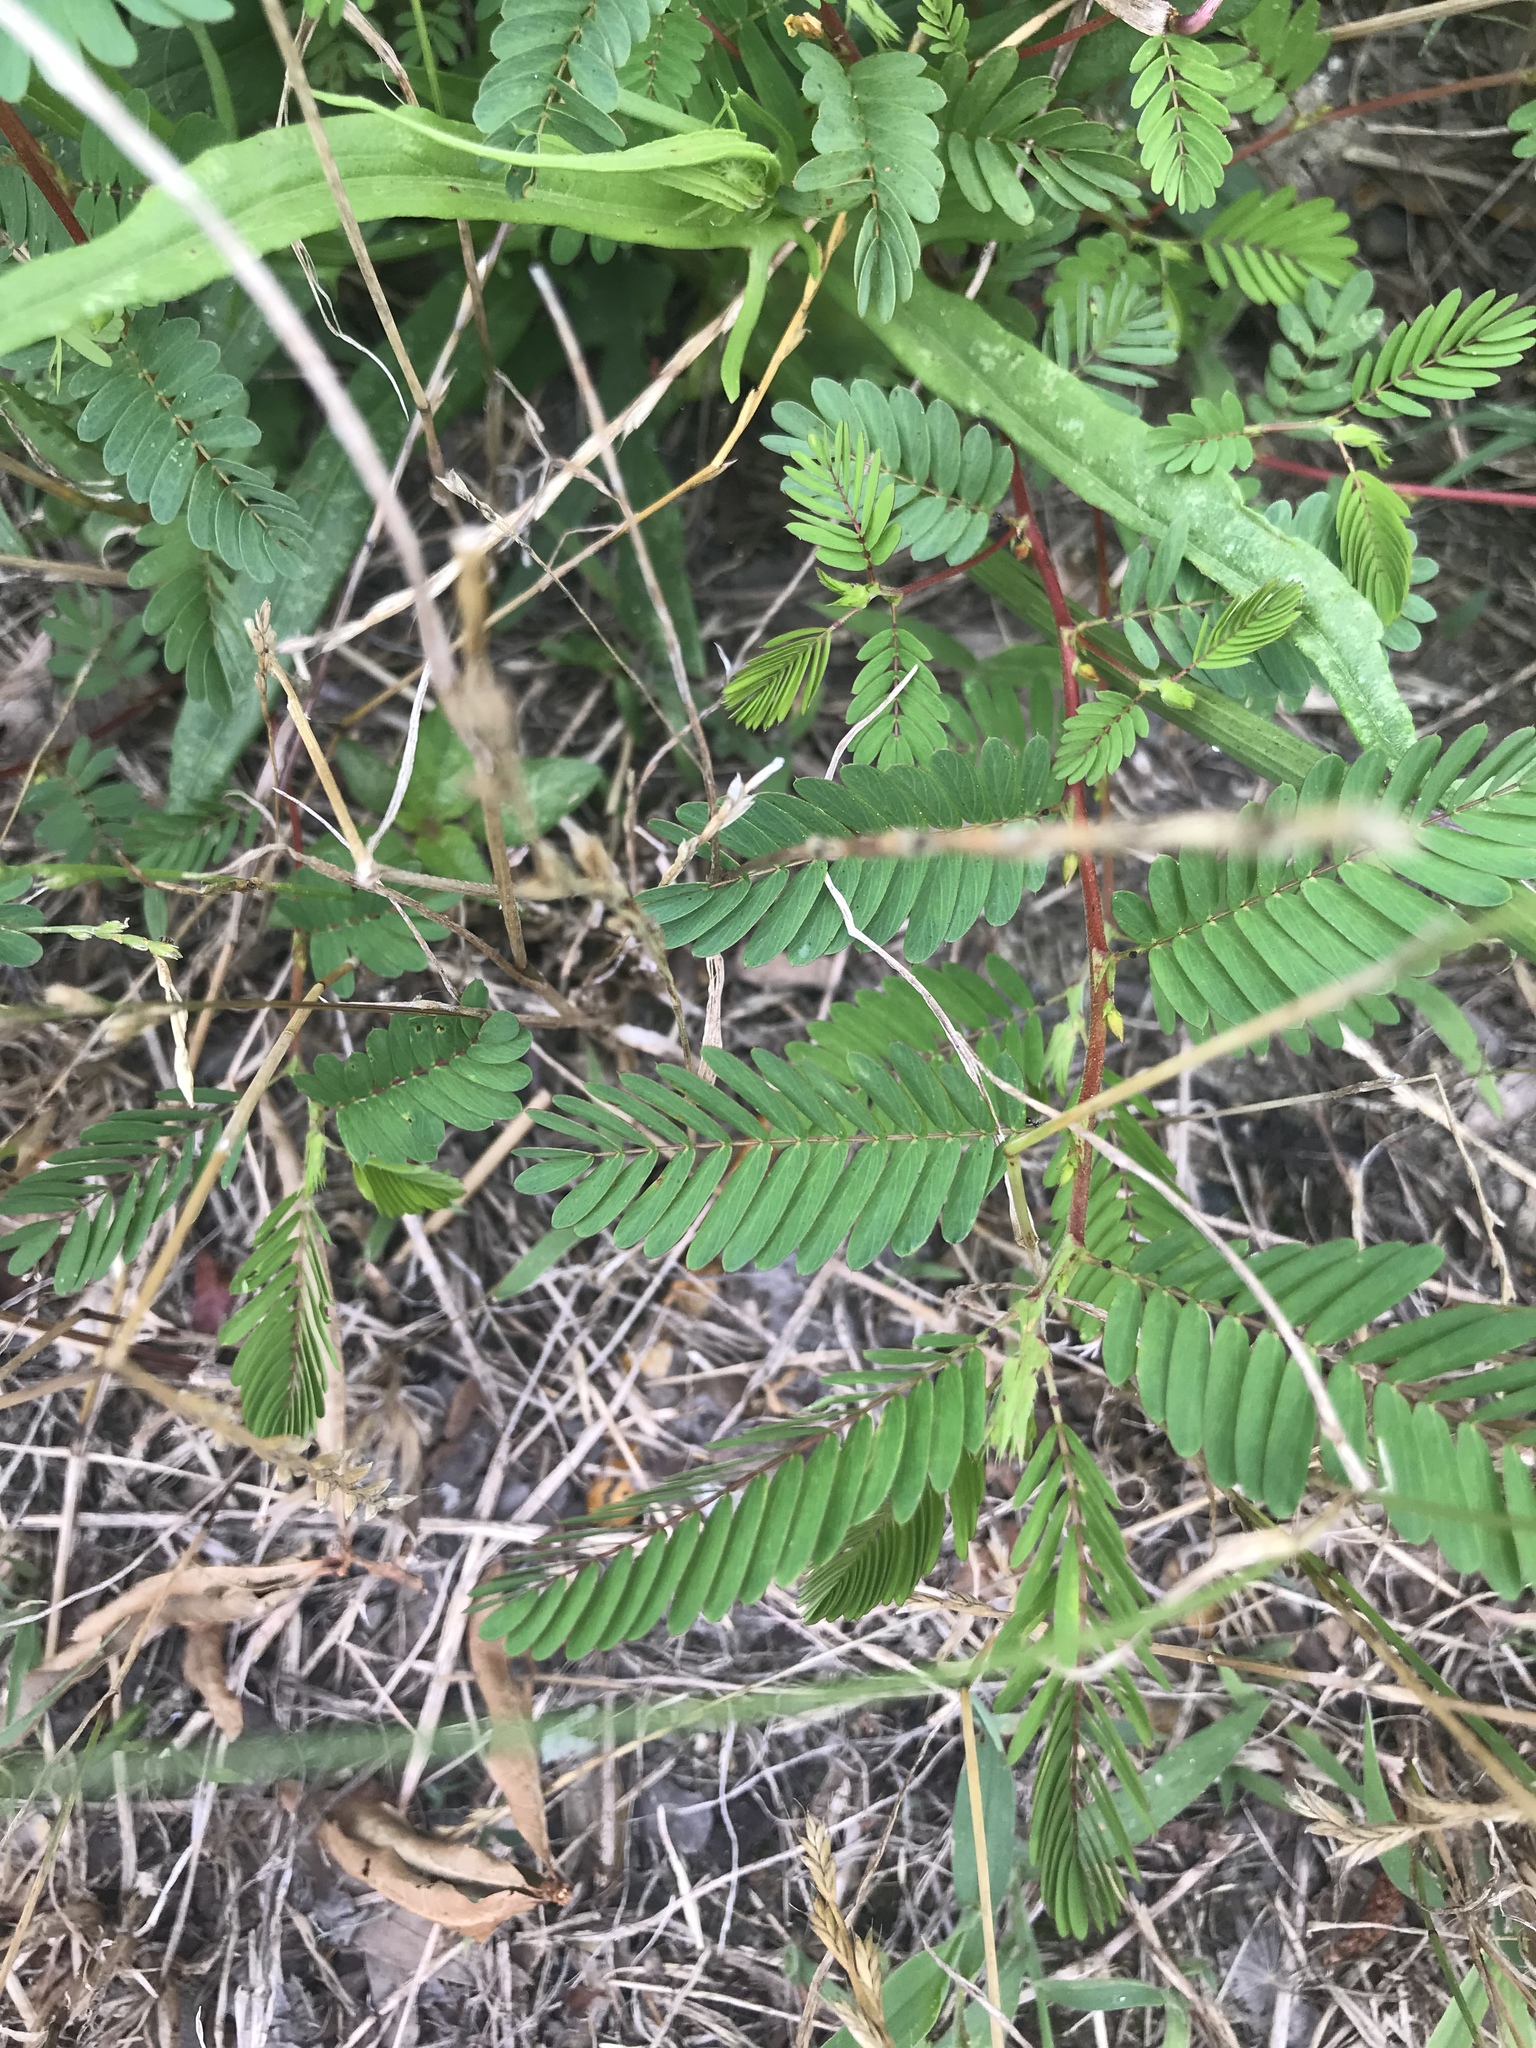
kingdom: Plantae
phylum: Tracheophyta
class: Magnoliopsida
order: Fabales
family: Fabaceae
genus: Chamaecrista
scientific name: Chamaecrista nictitans
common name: Sensitive cassia
